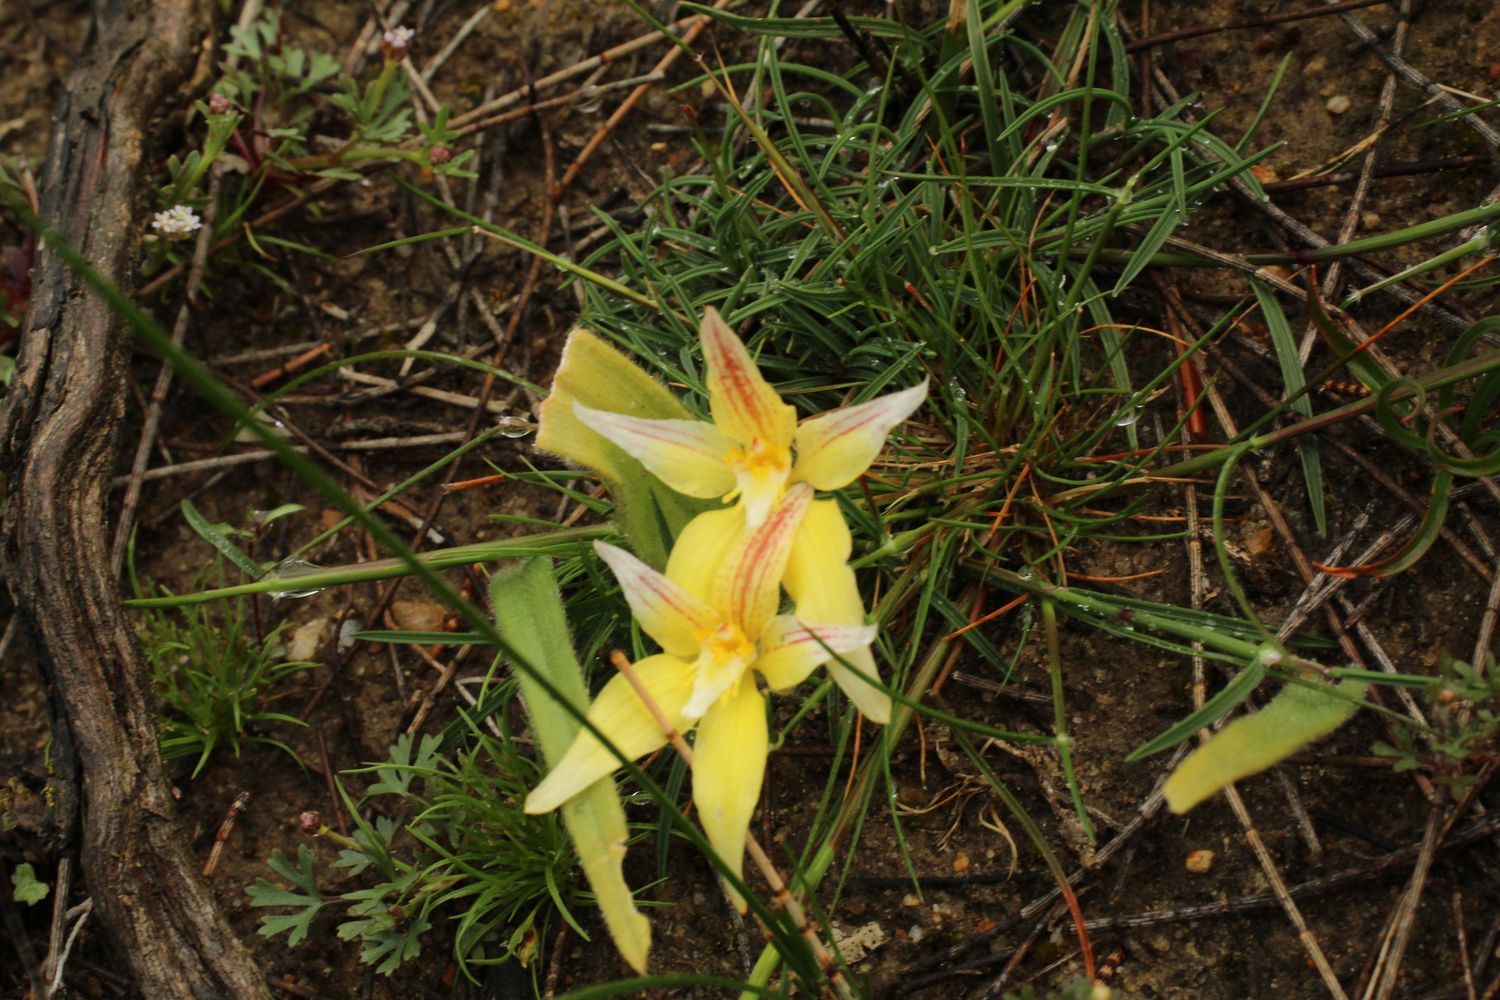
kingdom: Plantae
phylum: Tracheophyta
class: Liliopsida
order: Asparagales
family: Orchidaceae
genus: Caladenia
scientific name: Caladenia flava
